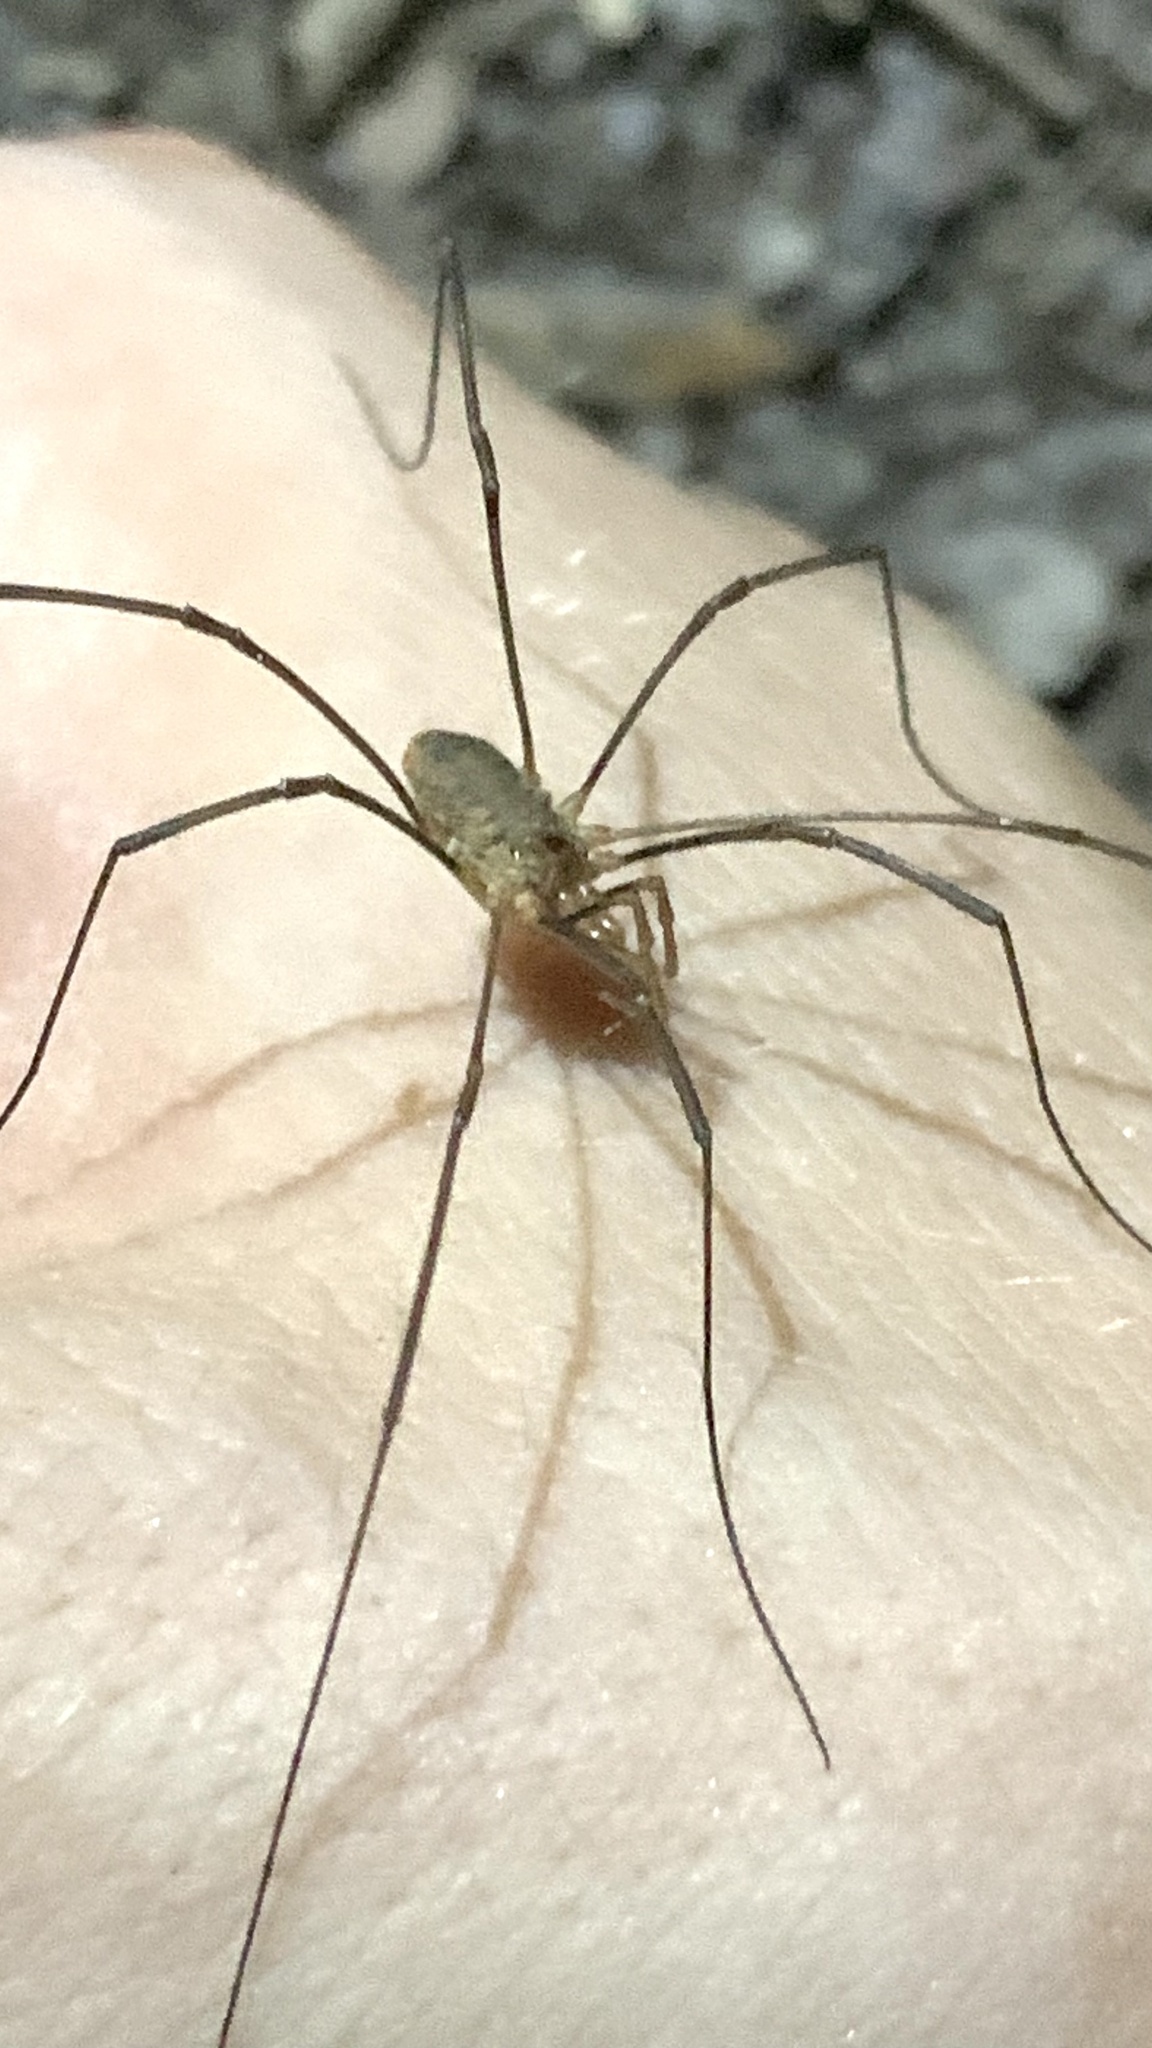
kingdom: Animalia
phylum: Arthropoda
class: Arachnida
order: Opiliones
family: Phalangiidae
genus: Phalangium
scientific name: Phalangium opilio
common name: Daddy longleg
